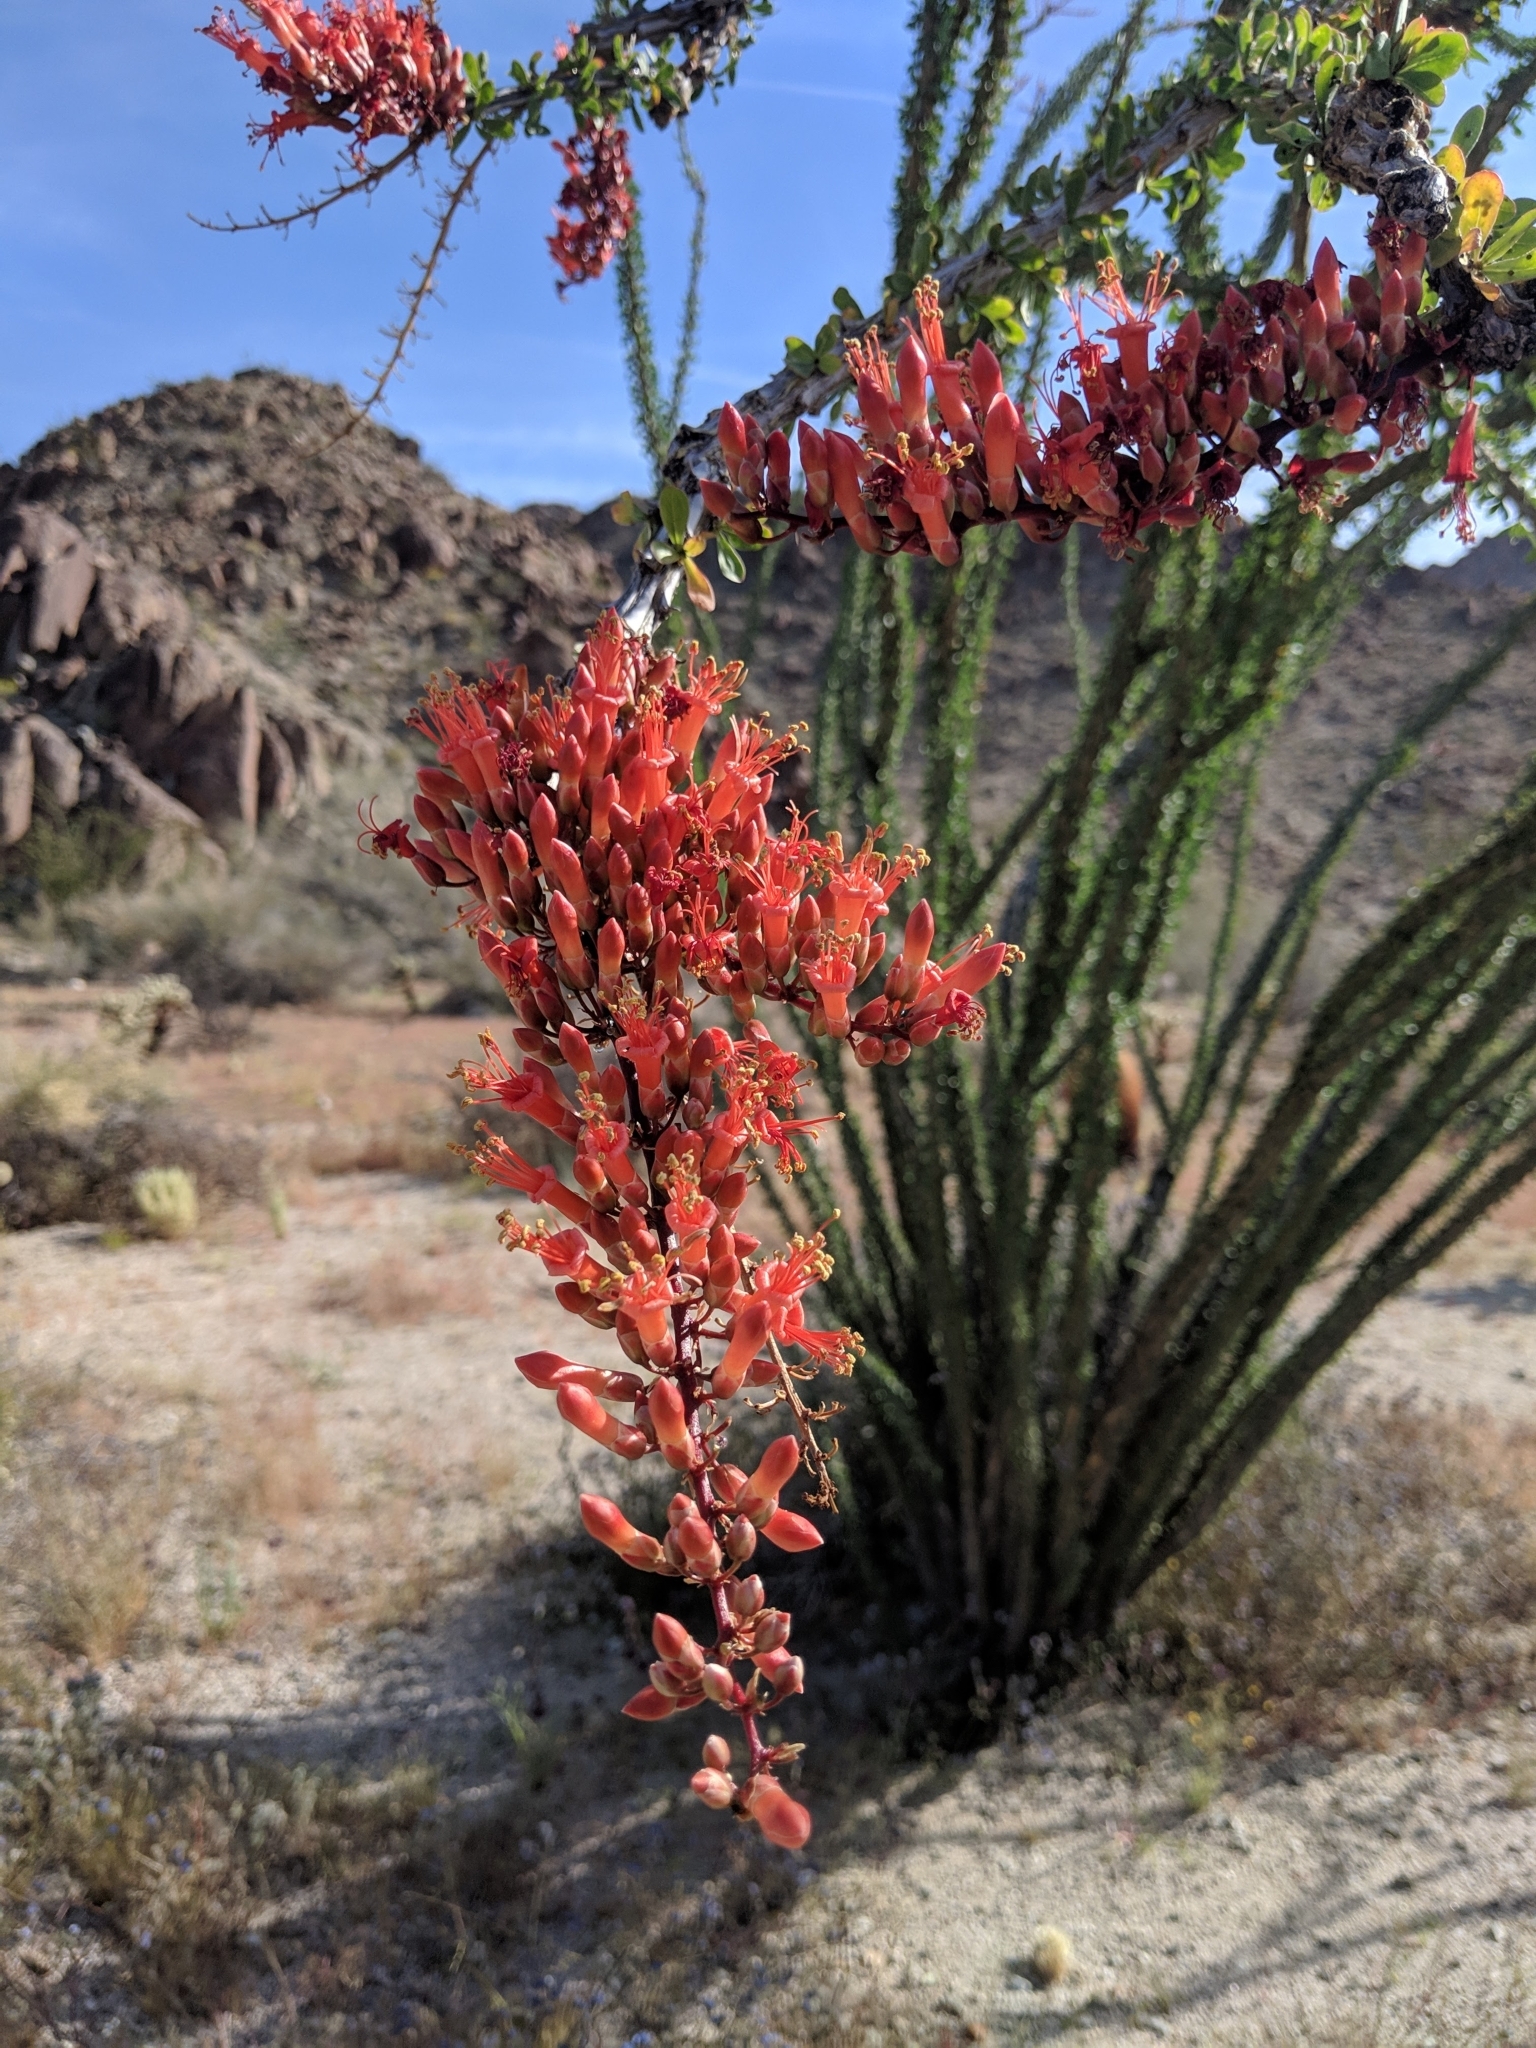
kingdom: Plantae
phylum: Tracheophyta
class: Magnoliopsida
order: Ericales
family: Fouquieriaceae
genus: Fouquieria
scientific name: Fouquieria splendens
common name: Vine-cactus
